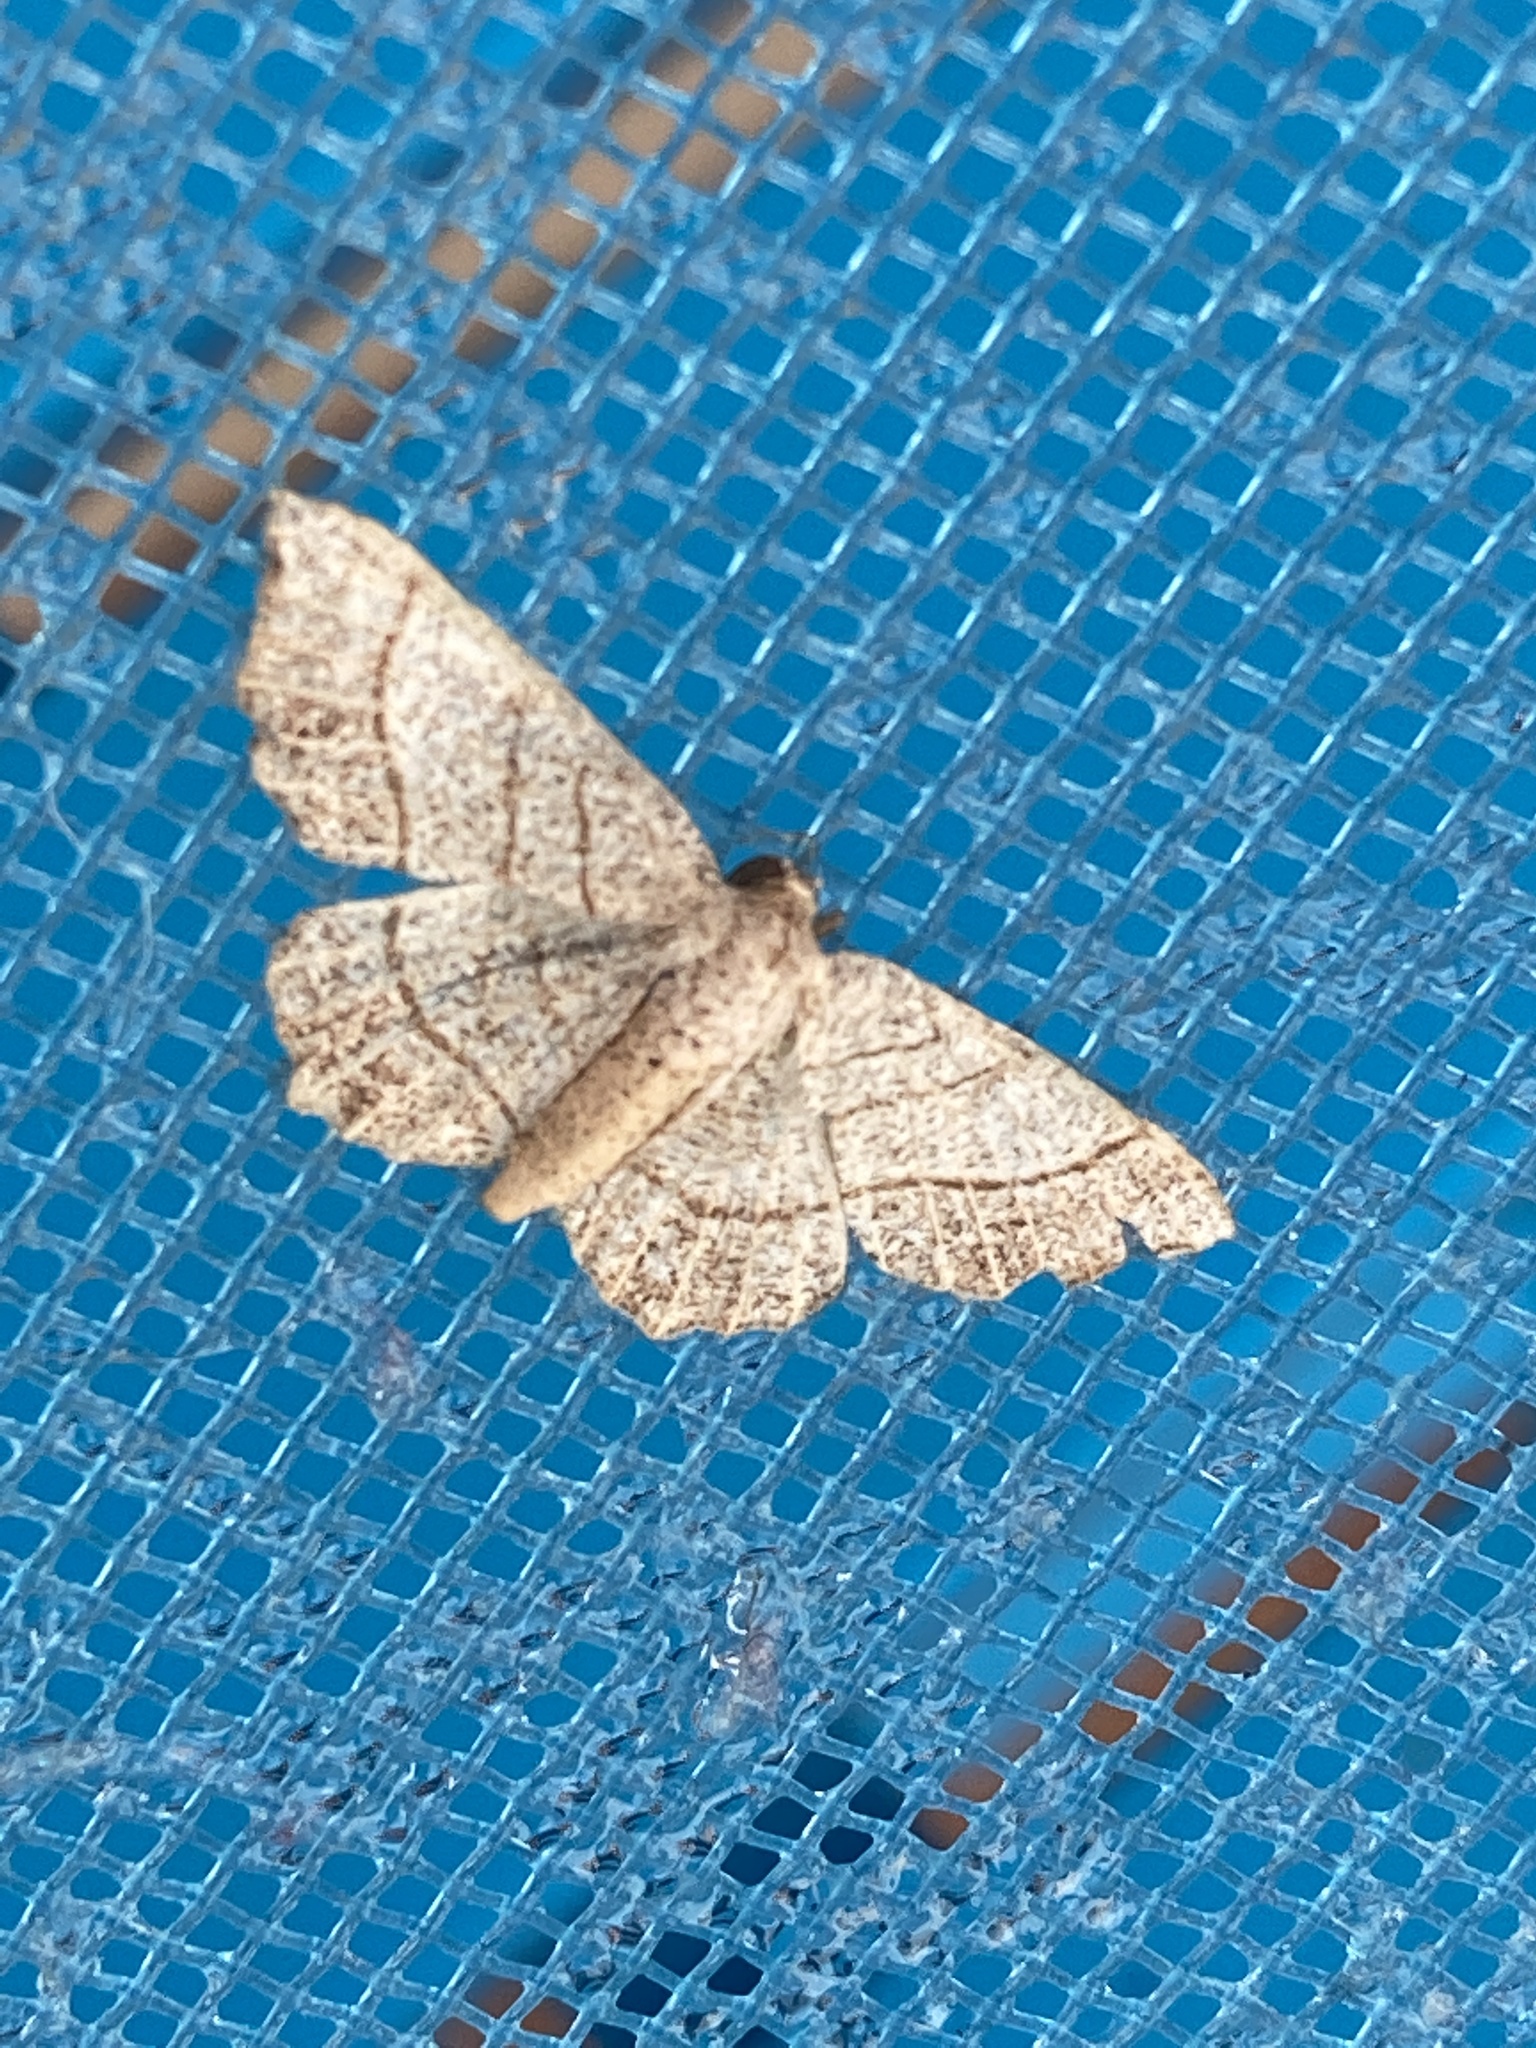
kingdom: Animalia
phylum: Arthropoda
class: Insecta
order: Lepidoptera
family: Geometridae
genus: Eumacaria
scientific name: Eumacaria madopata
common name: Brown-bordered geometer
